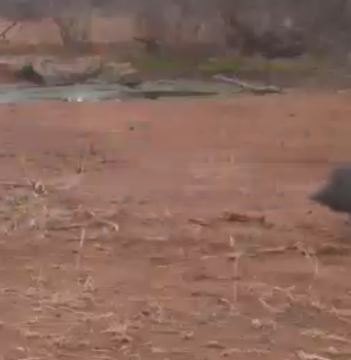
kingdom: Animalia
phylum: Chordata
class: Aves
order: Galliformes
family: Numididae
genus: Numida
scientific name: Numida meleagris
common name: Helmeted guineafowl
